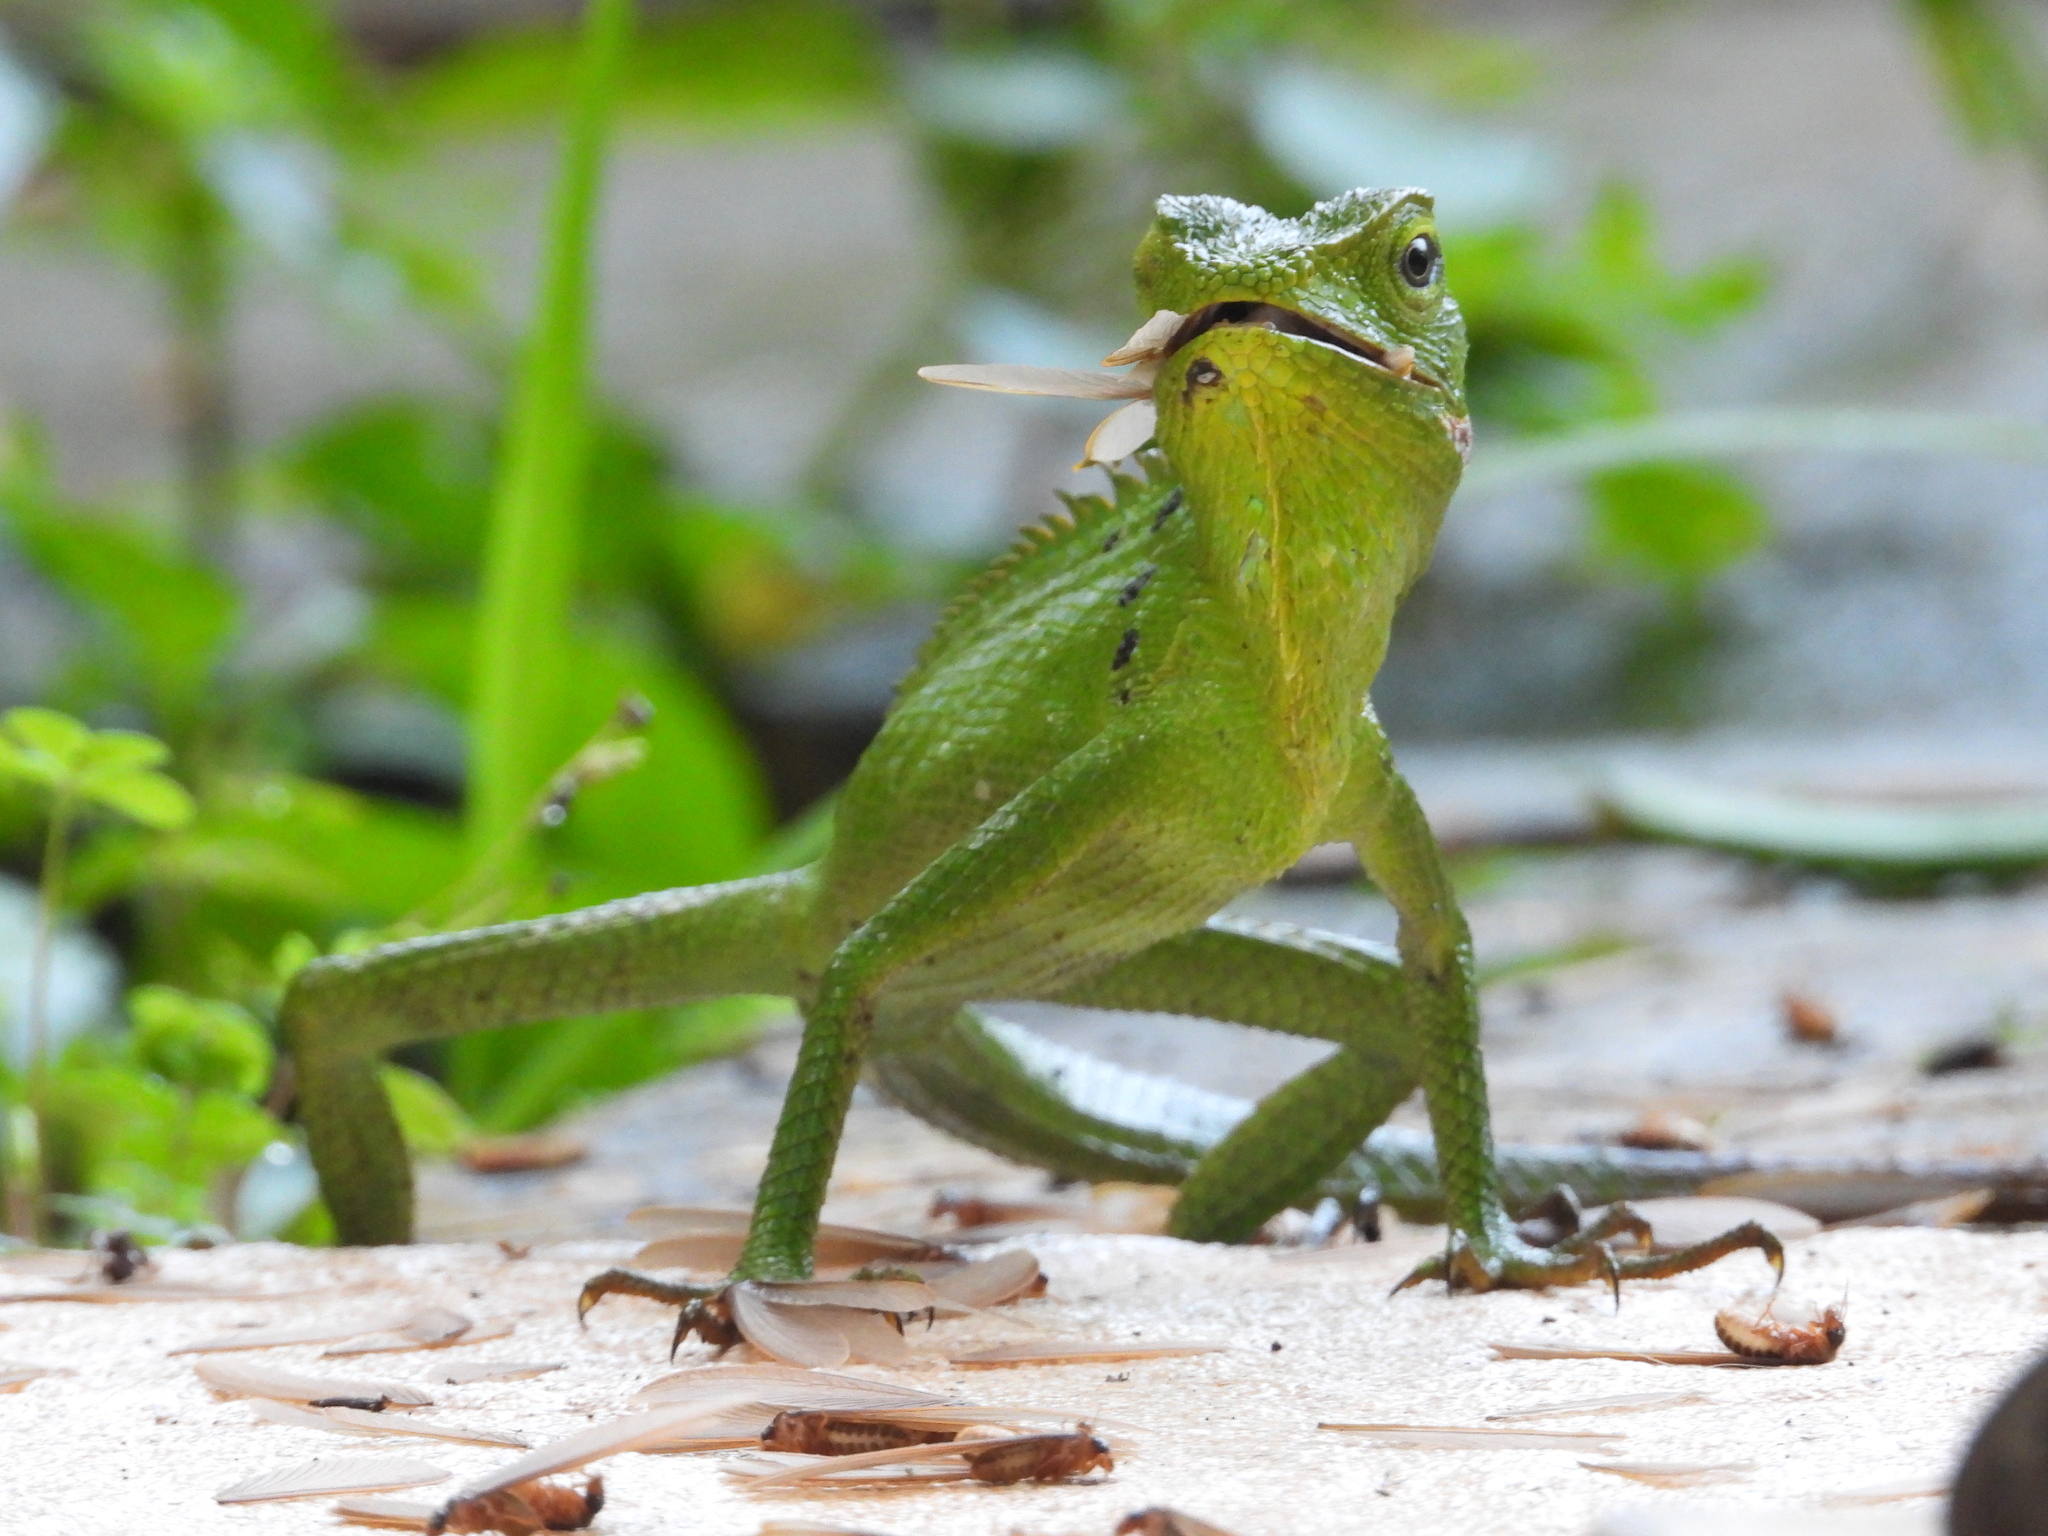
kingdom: Animalia
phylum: Chordata
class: Squamata
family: Agamidae
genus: Bronchocela
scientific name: Bronchocela jubata
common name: Maned forest lizard
